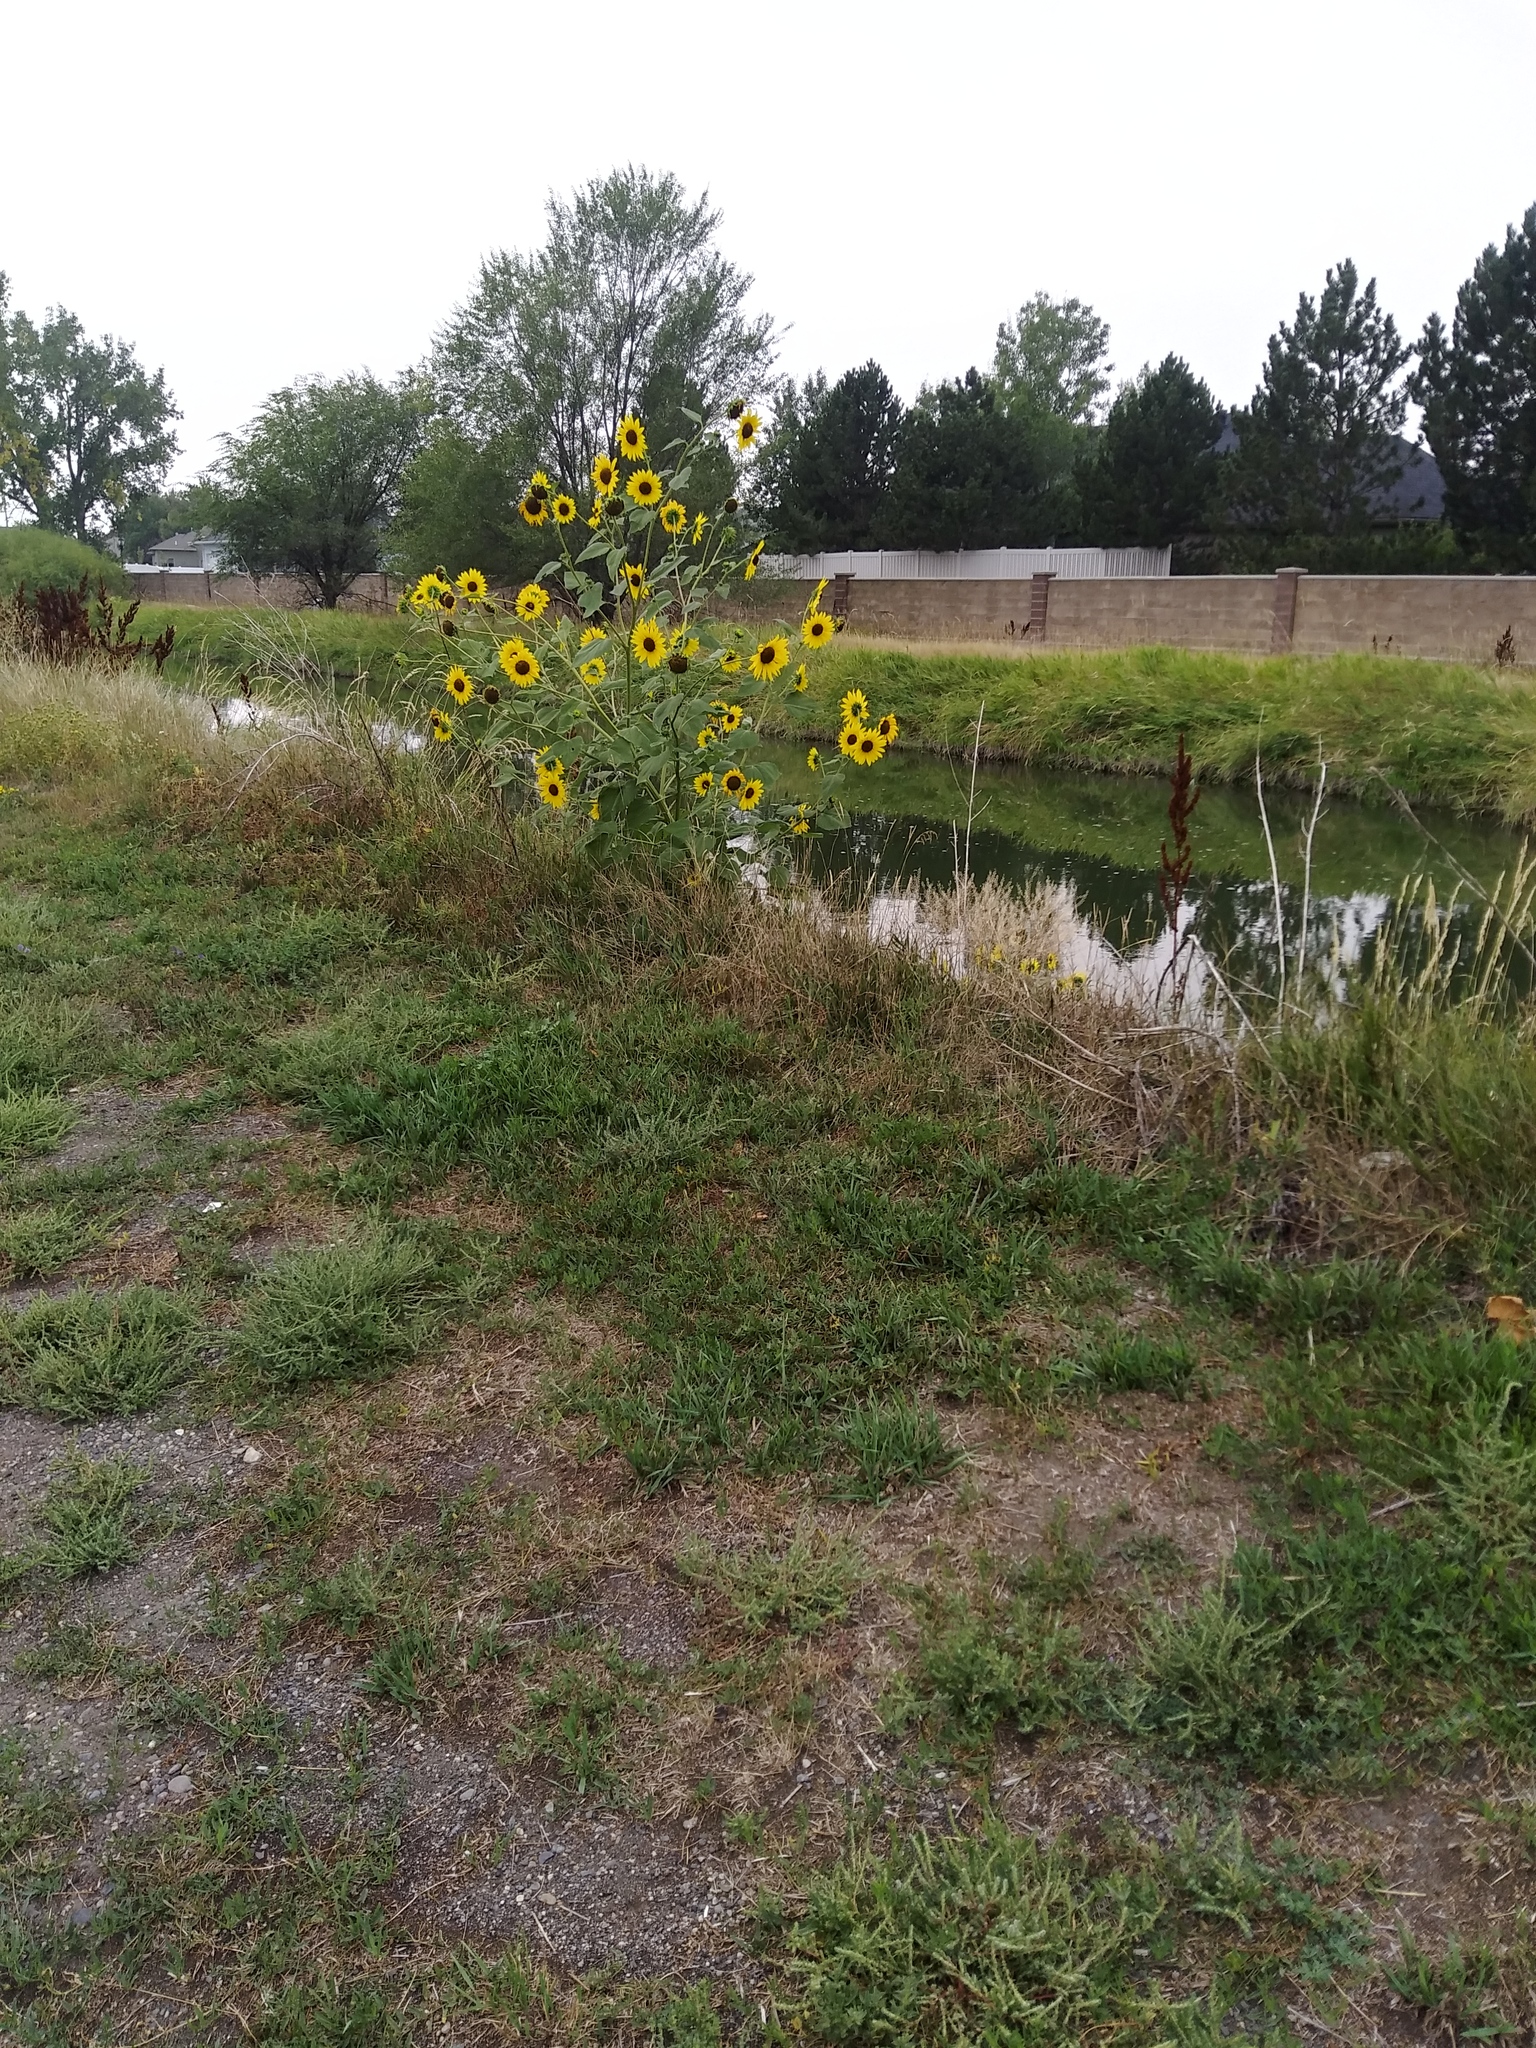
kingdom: Plantae
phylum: Tracheophyta
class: Magnoliopsida
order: Asterales
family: Asteraceae
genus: Helianthus
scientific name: Helianthus annuus
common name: Sunflower
